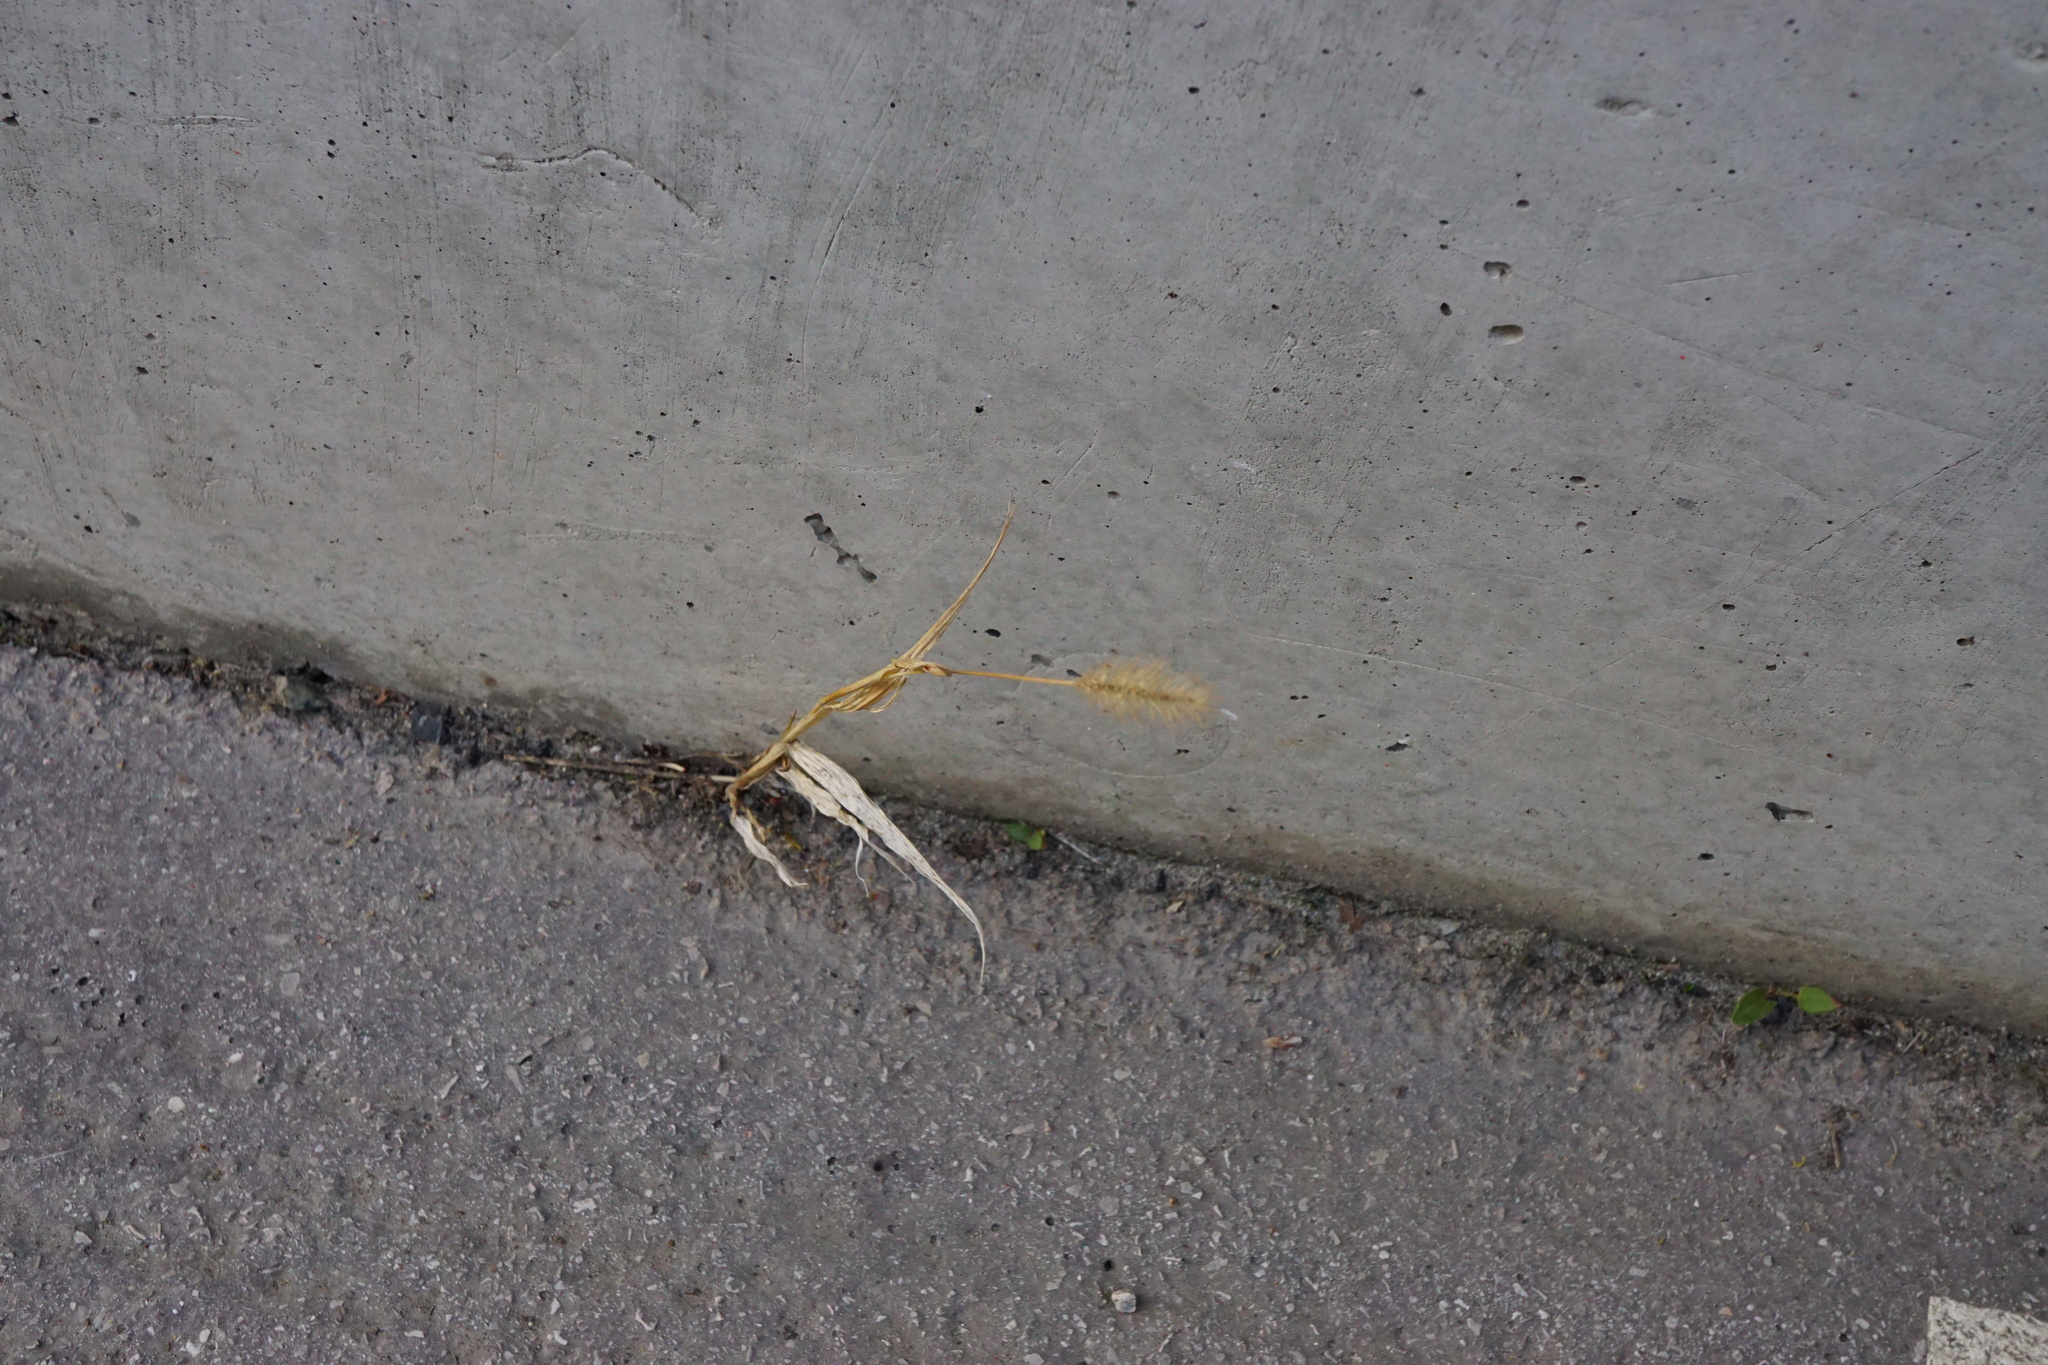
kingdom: Plantae
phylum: Tracheophyta
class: Liliopsida
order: Poales
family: Poaceae
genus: Setaria
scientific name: Setaria pumila
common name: Yellow bristle-grass
